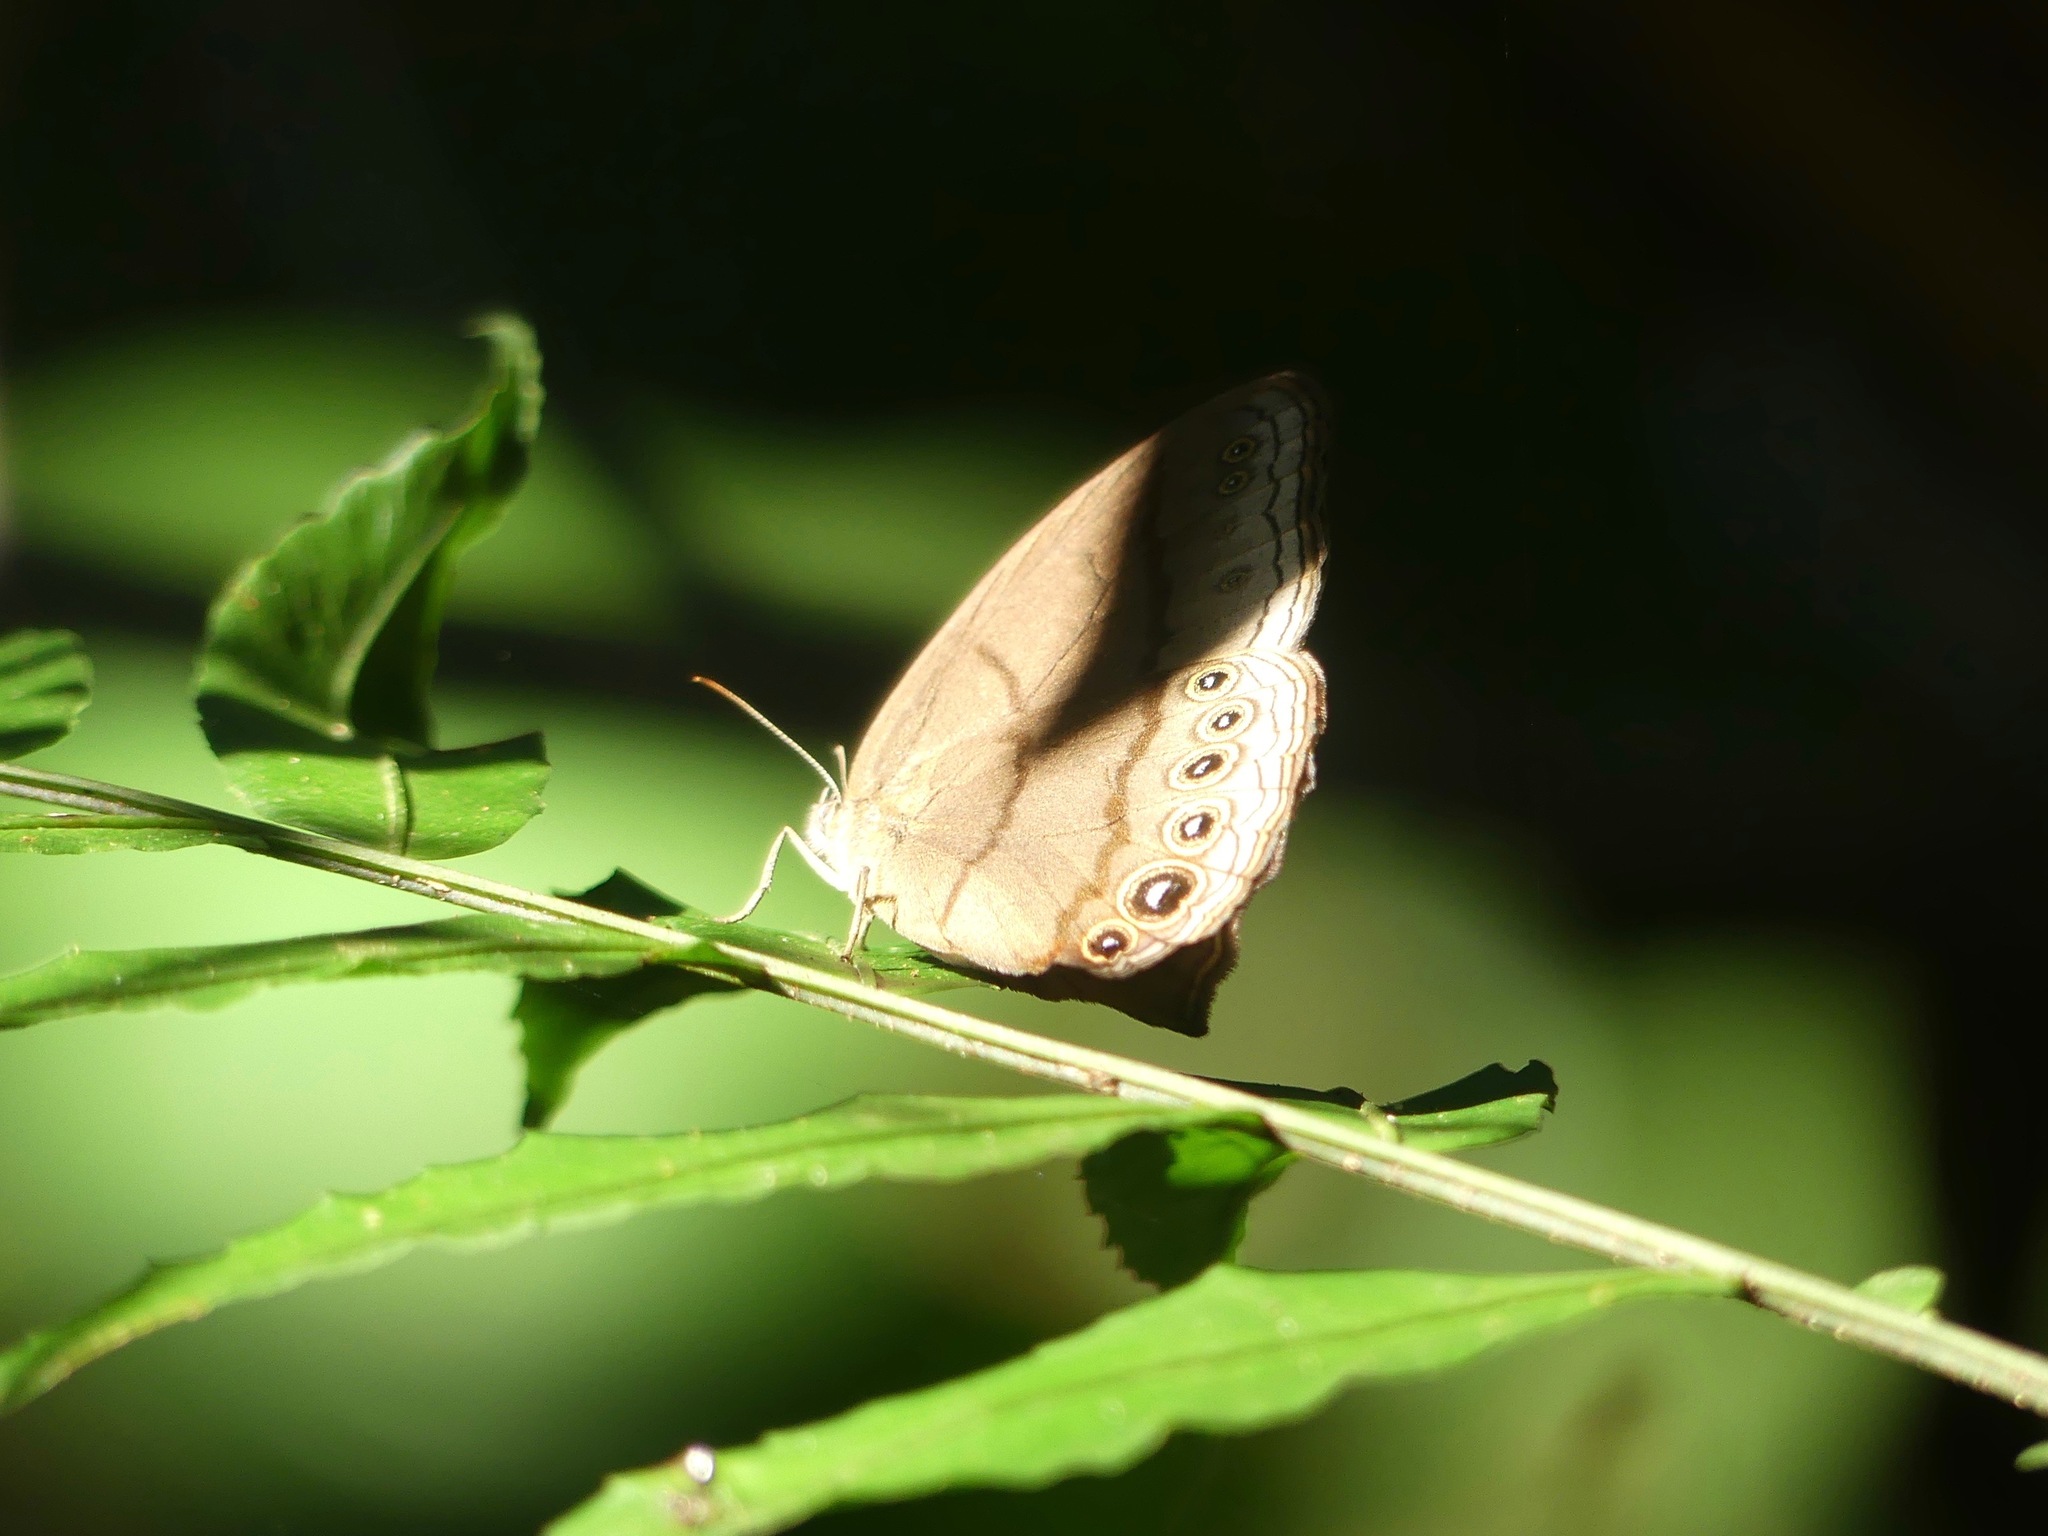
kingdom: Animalia
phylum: Arthropoda
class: Insecta
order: Lepidoptera
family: Nymphalidae
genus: Erichthodes
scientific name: Erichthodes erichtho
